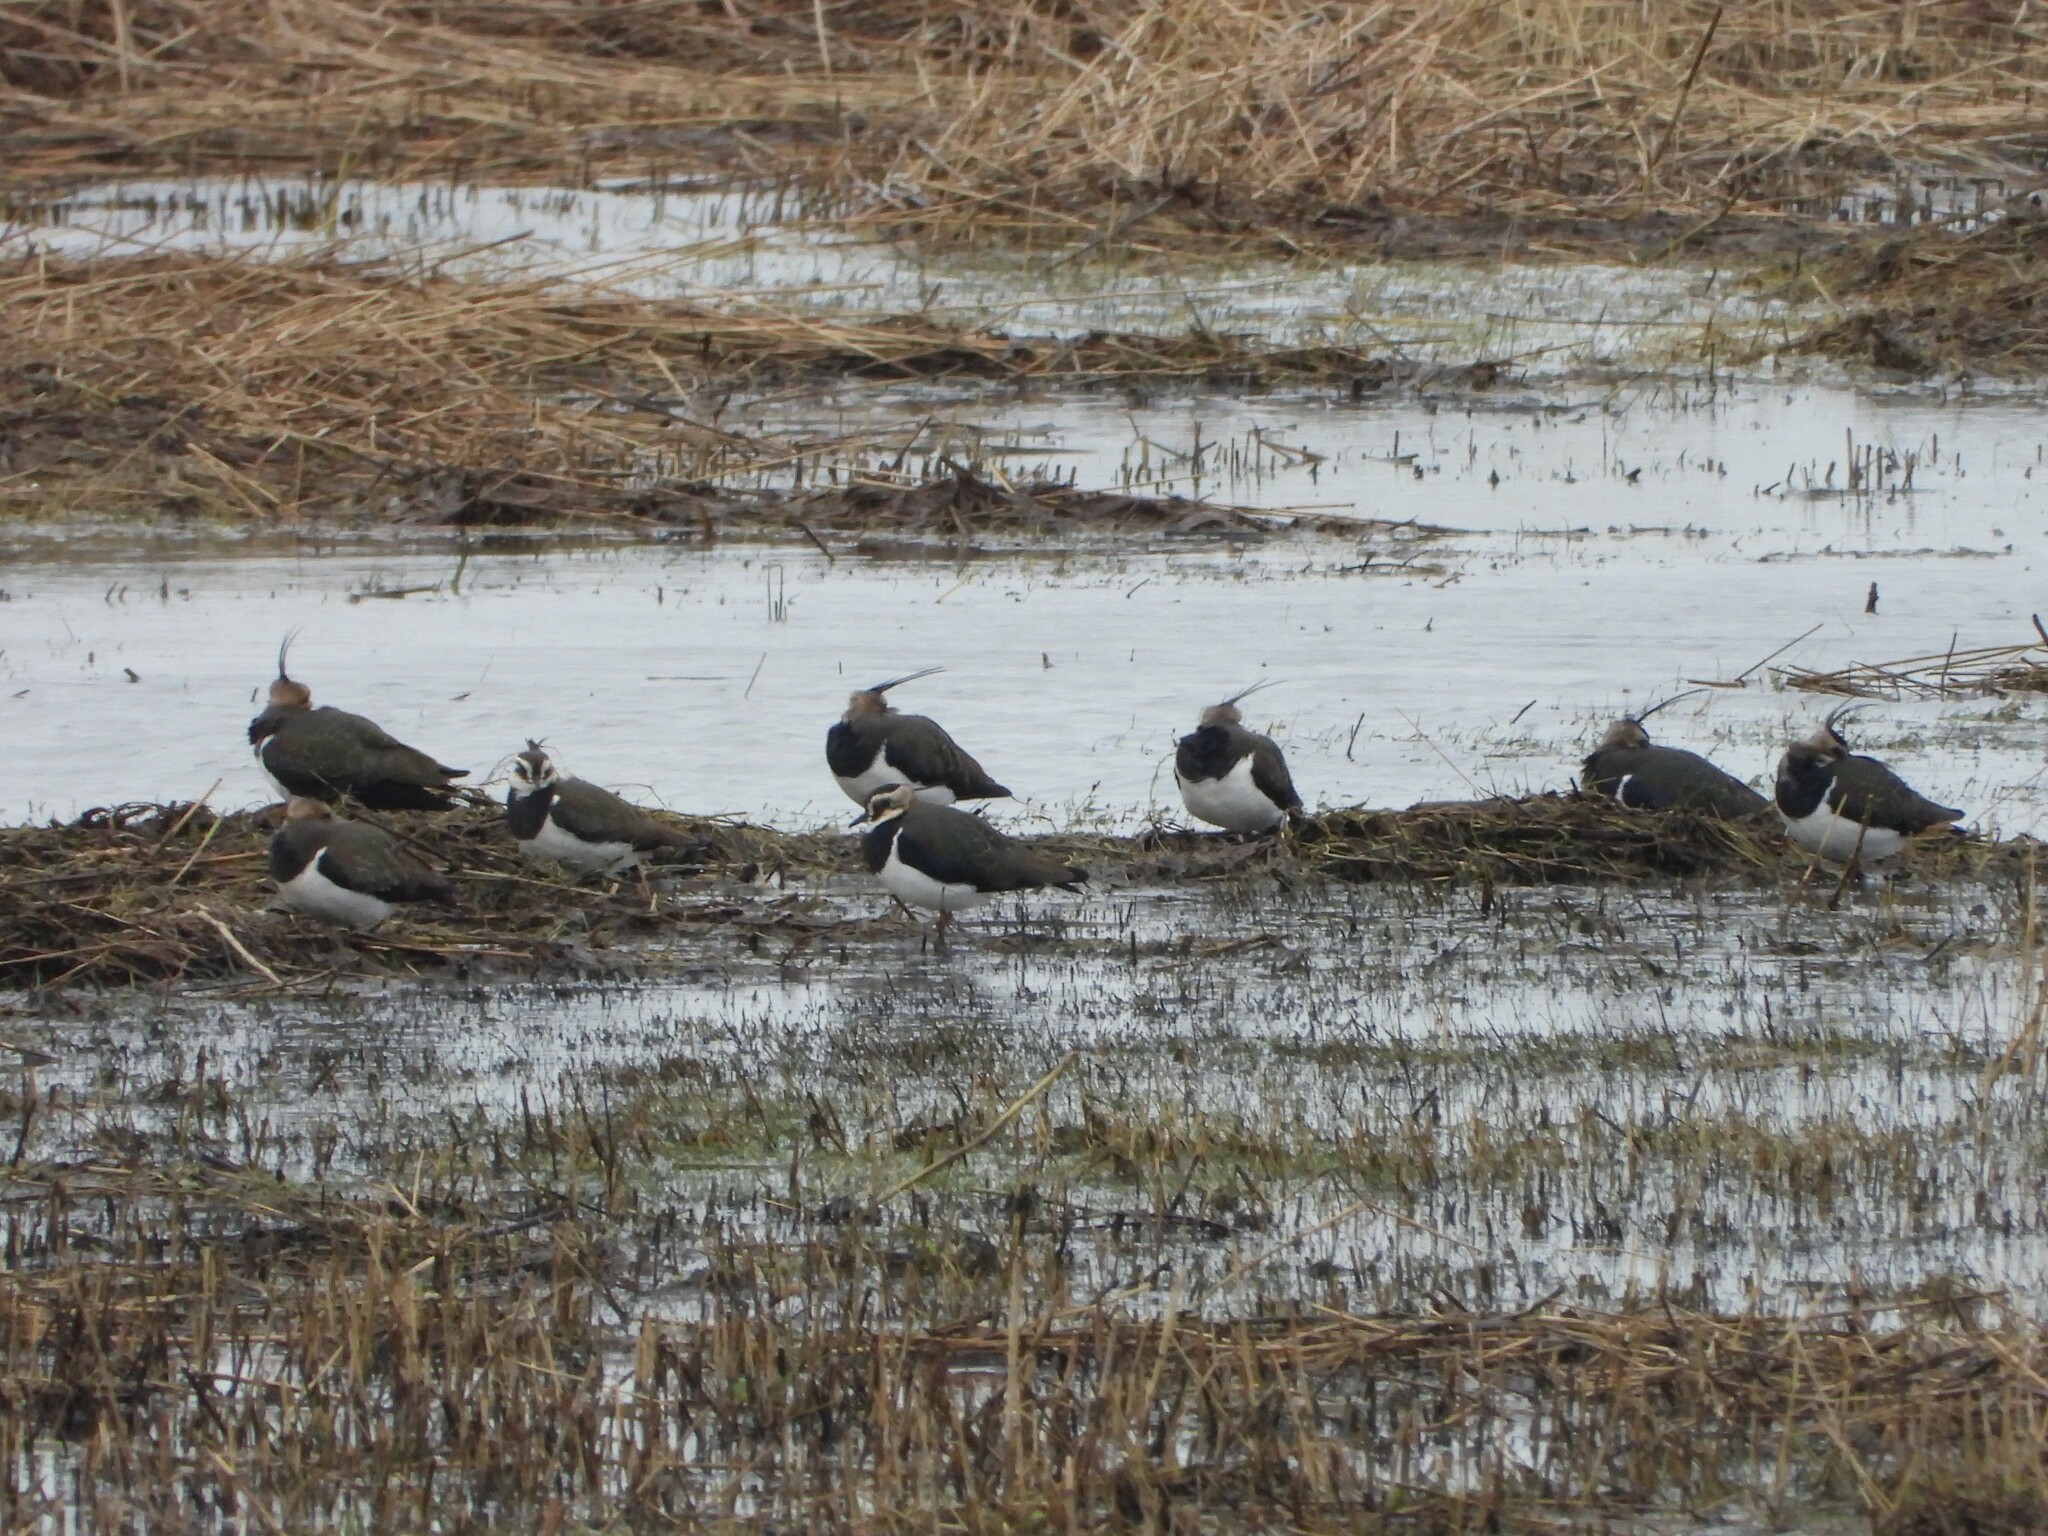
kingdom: Animalia
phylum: Chordata
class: Aves
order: Charadriiformes
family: Charadriidae
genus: Vanellus
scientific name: Vanellus vanellus
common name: Northern lapwing
